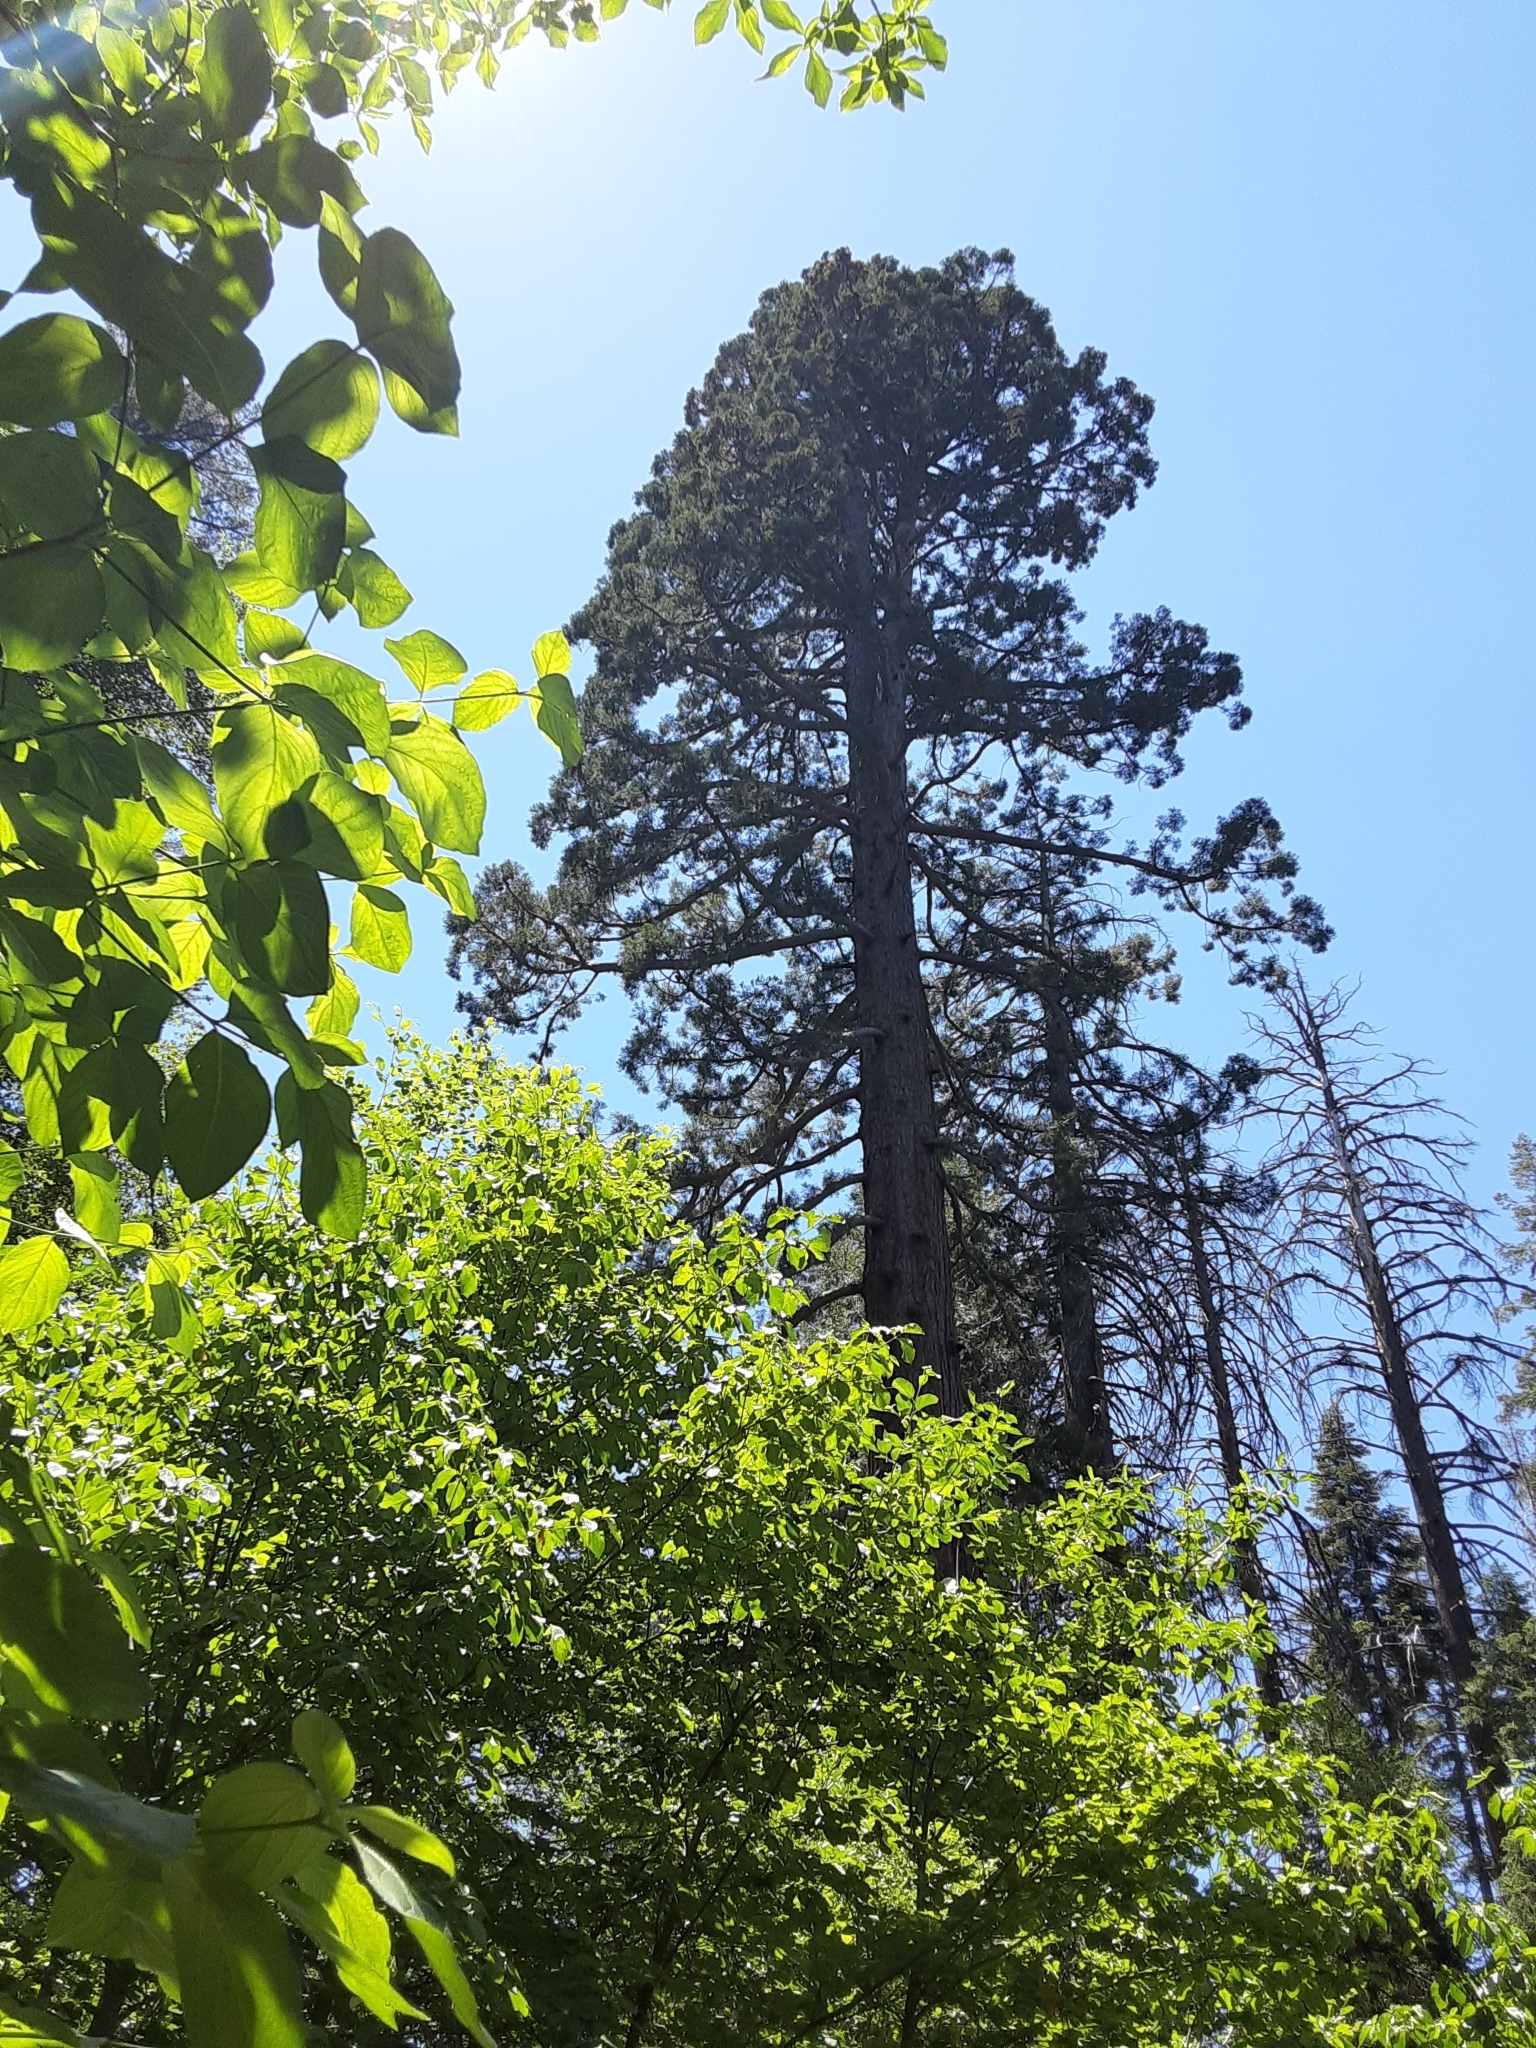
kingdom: Plantae
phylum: Tracheophyta
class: Pinopsida
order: Pinales
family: Cupressaceae
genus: Sequoiadendron
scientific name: Sequoiadendron giganteum
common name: Wellingtonia
